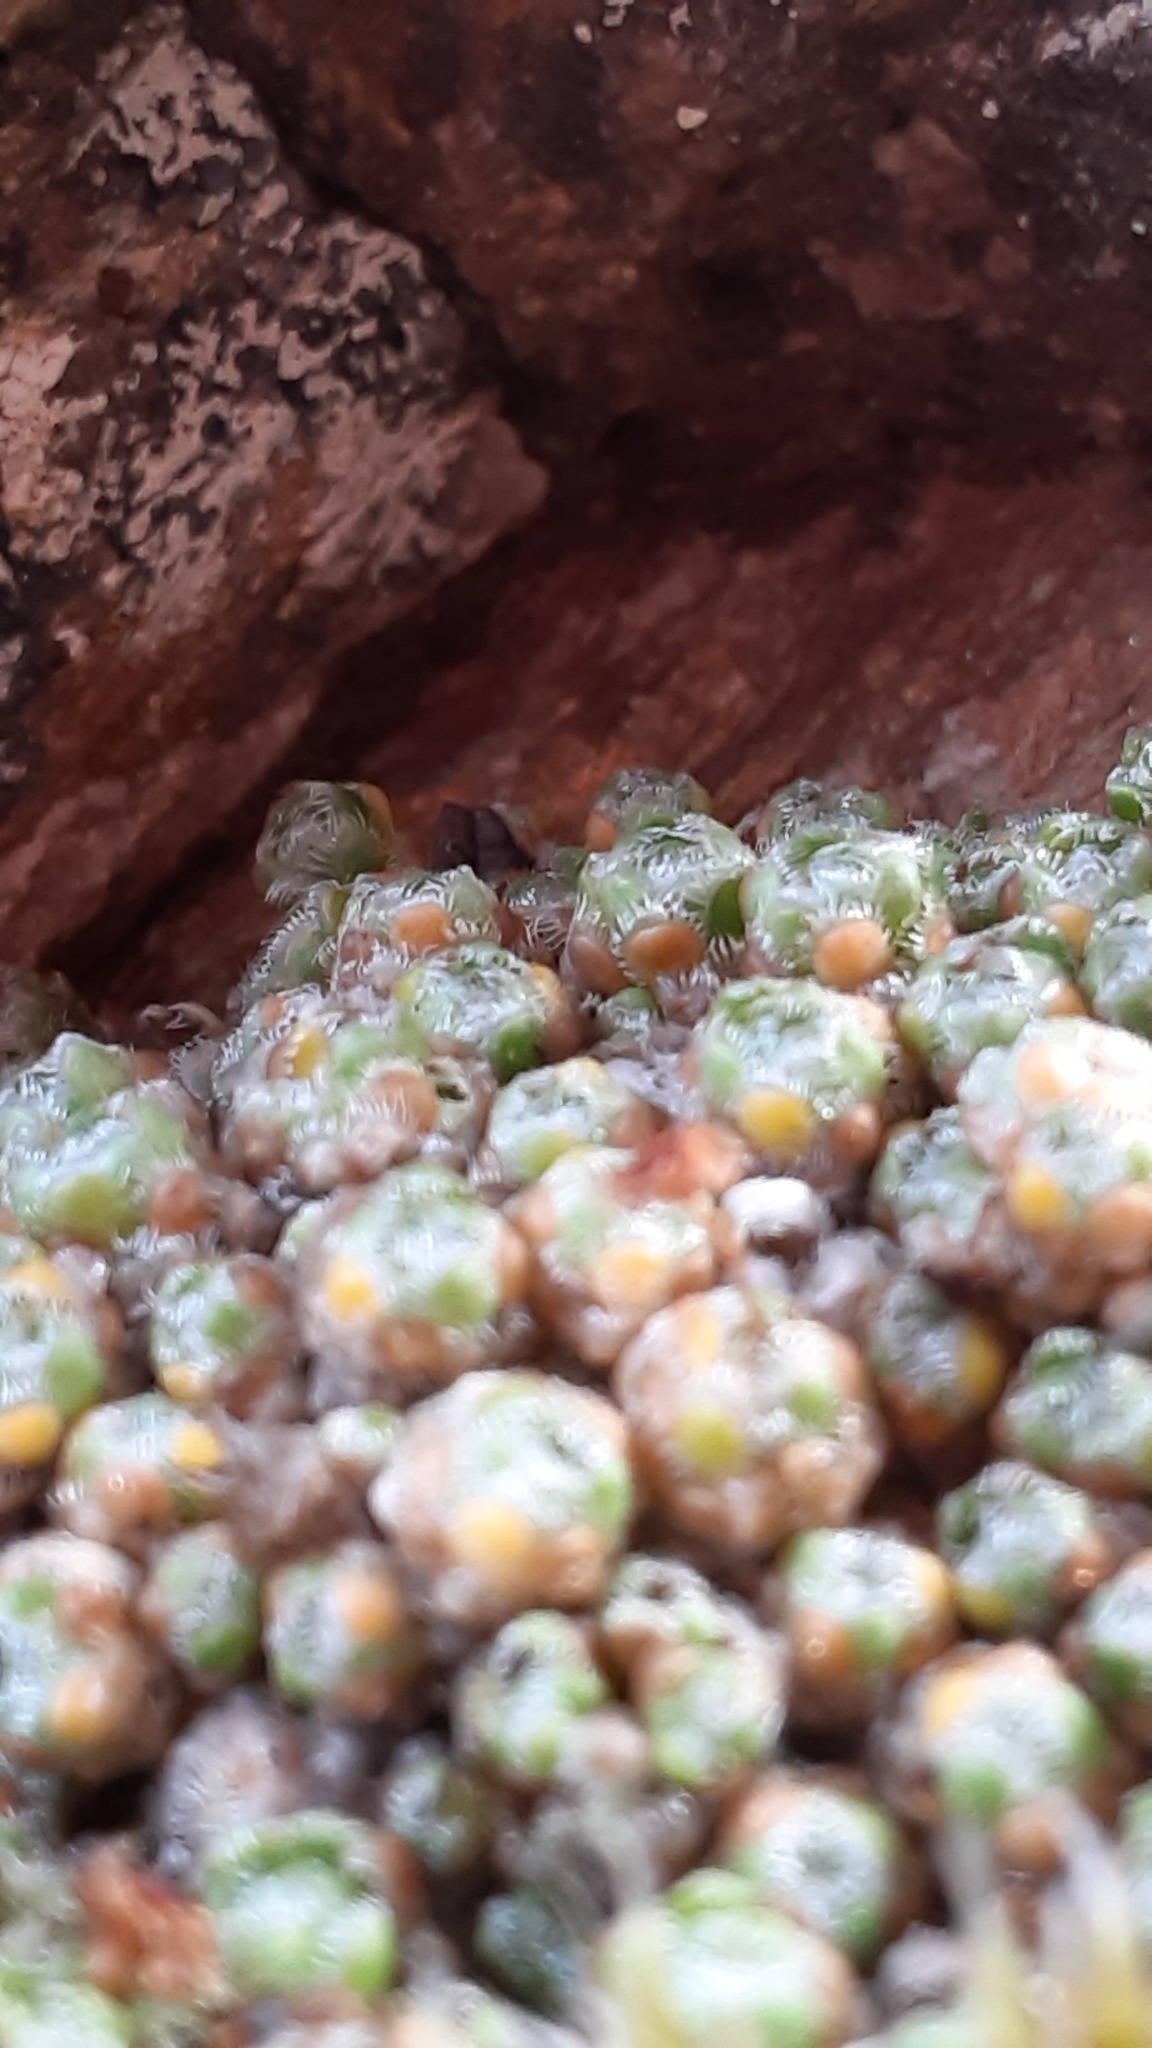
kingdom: Plantae
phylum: Tracheophyta
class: Magnoliopsida
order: Saxifragales
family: Saxifragaceae
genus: Saxifraga
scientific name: Saxifraga eschscholtzii
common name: Eschscholtz's saxifrage
